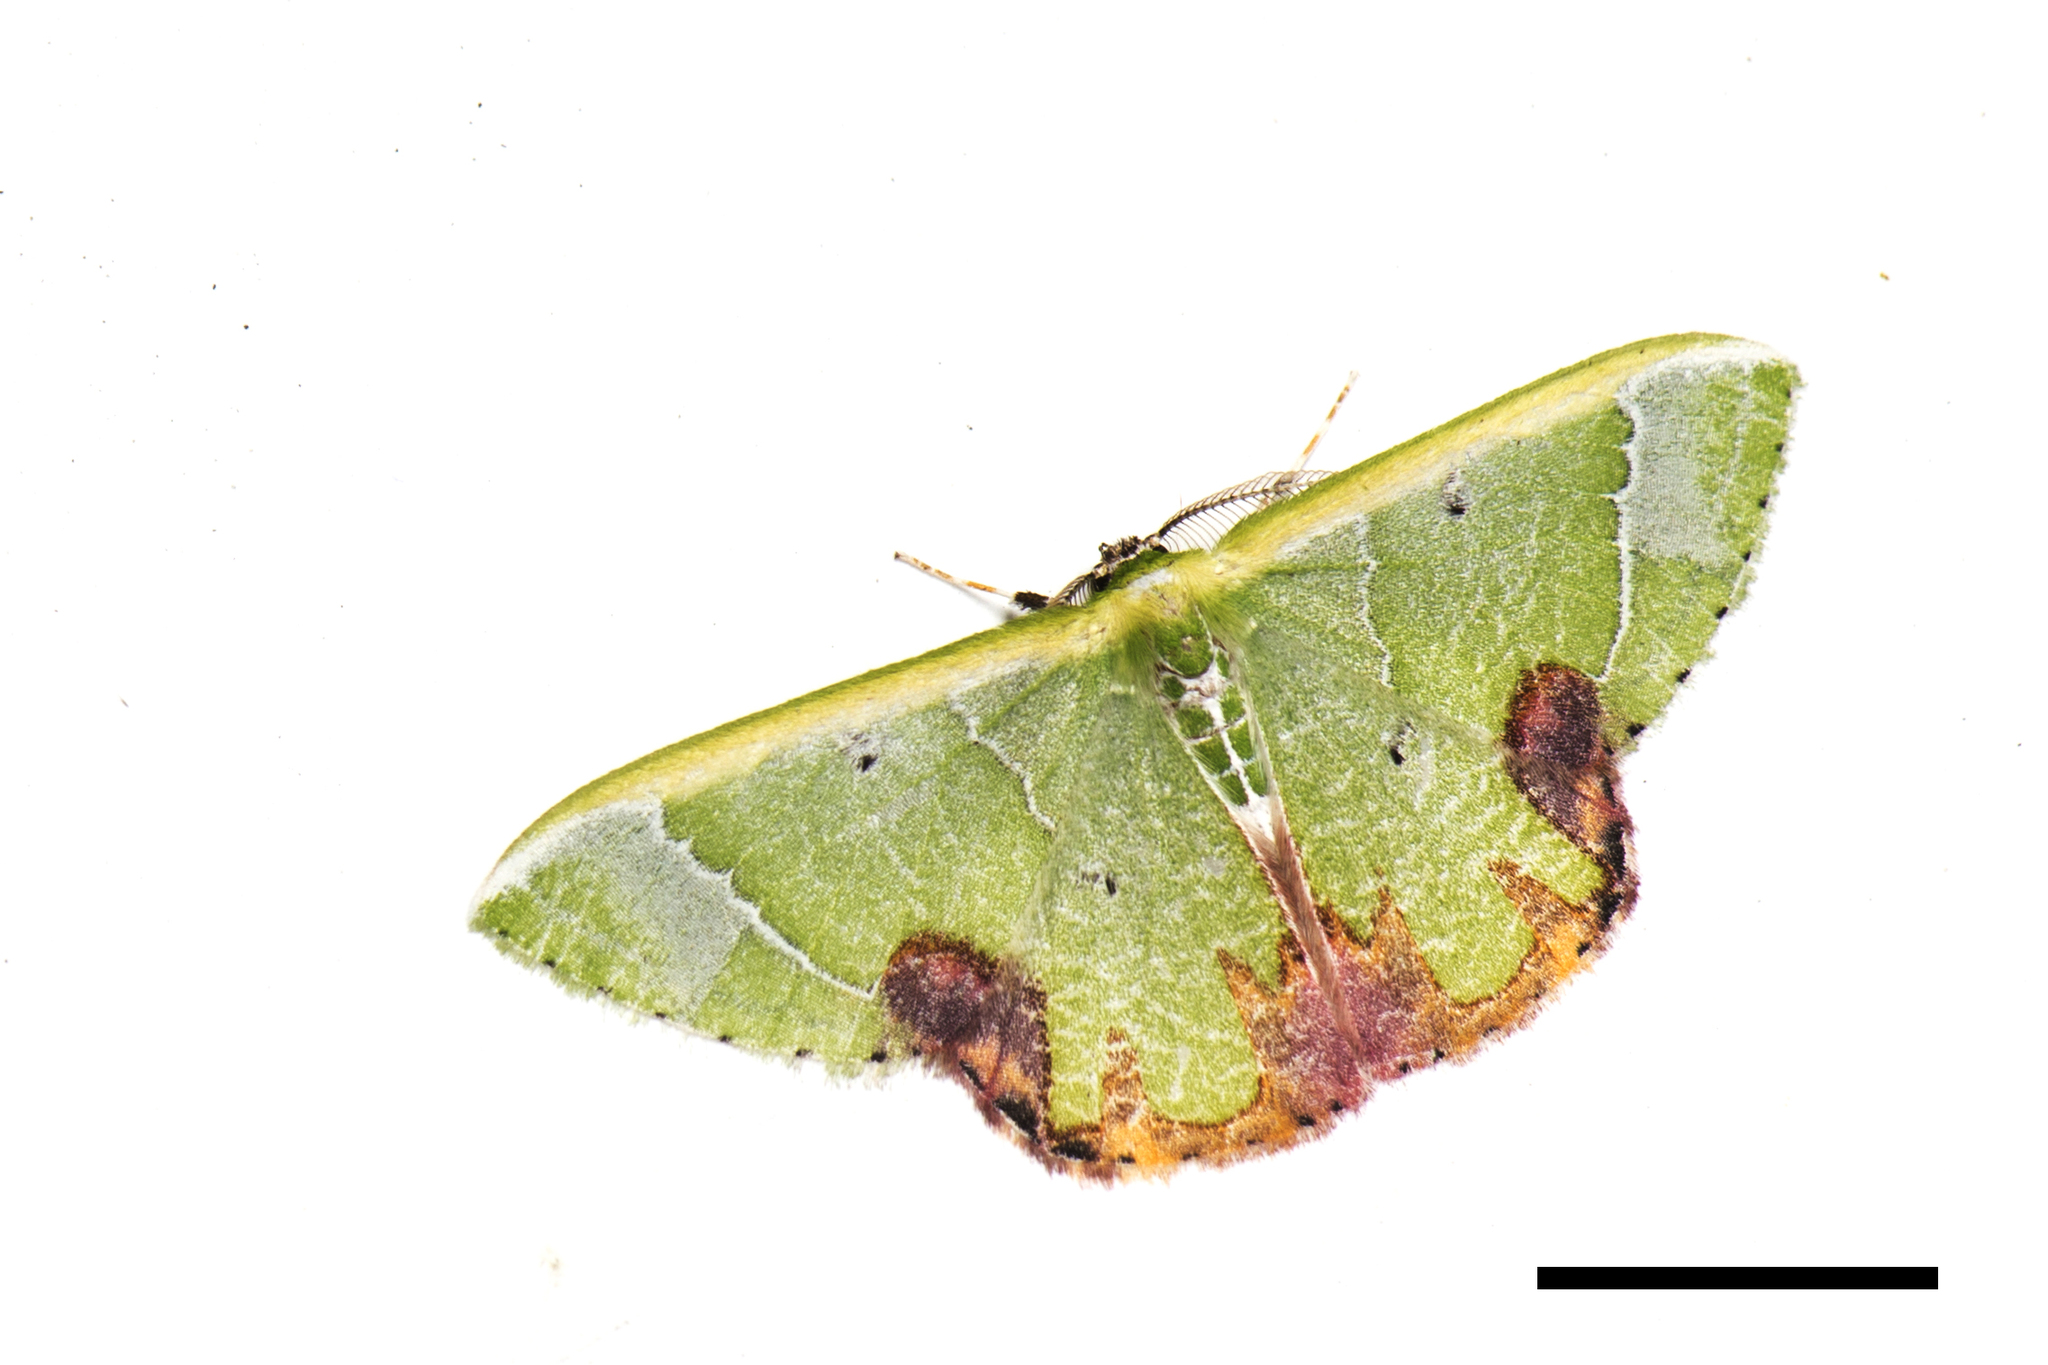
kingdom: Animalia
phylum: Arthropoda
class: Insecta
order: Lepidoptera
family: Geometridae
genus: Comibaena
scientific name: Comibaena pictipennis
